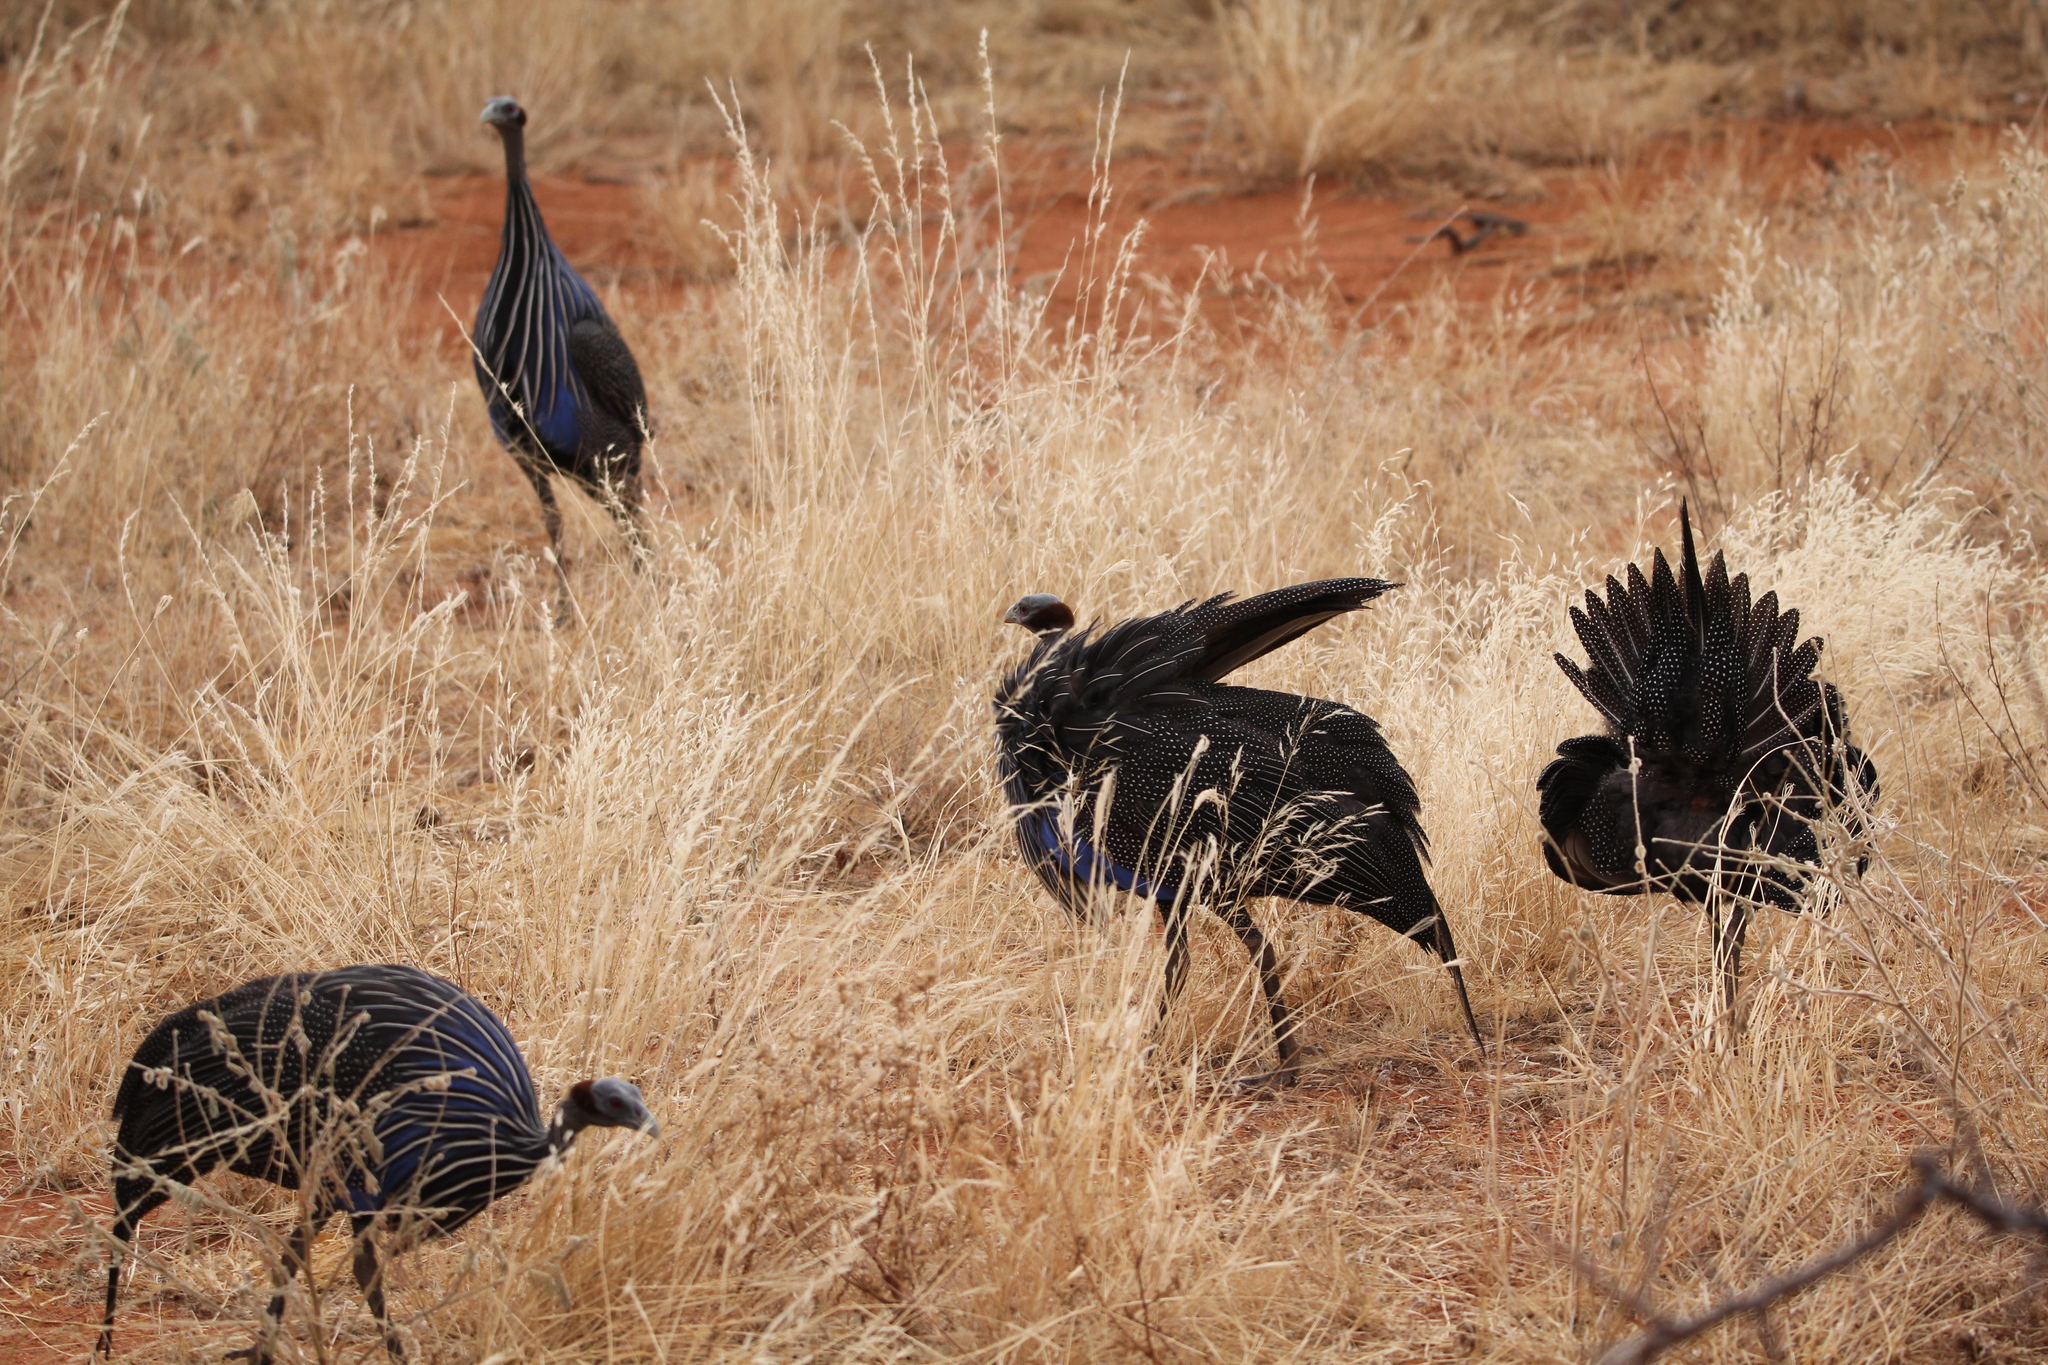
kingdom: Animalia
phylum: Chordata
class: Aves
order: Galliformes
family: Numididae
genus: Acryllium
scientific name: Acryllium vulturinum
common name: Vulturine guineafowl
